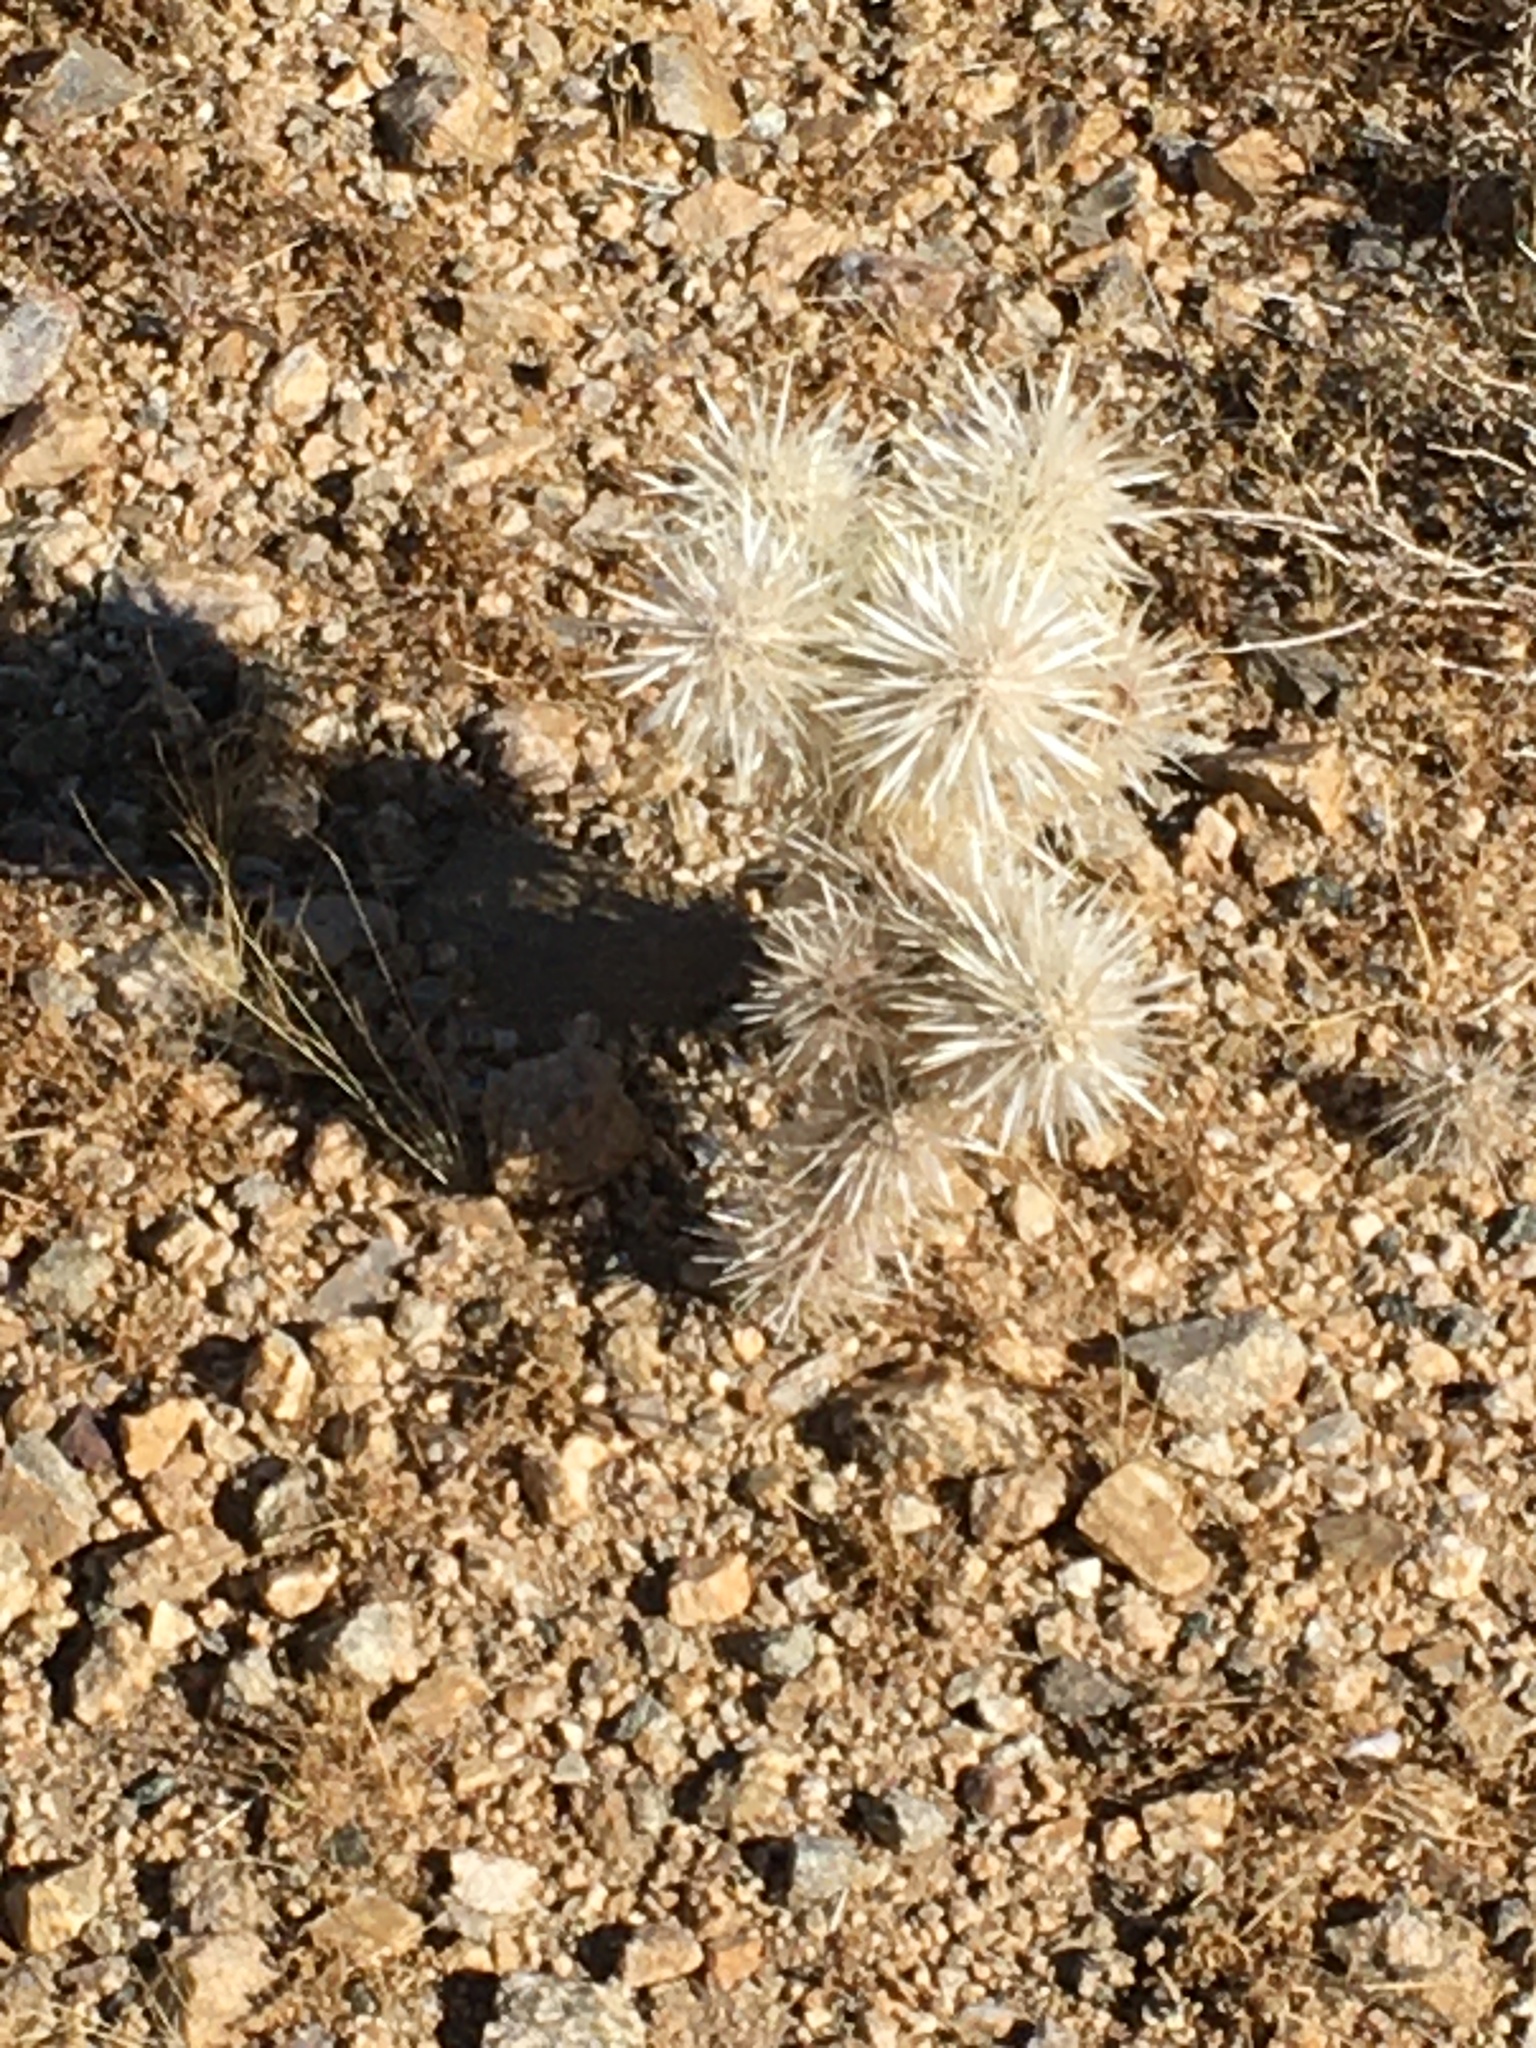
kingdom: Plantae
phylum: Tracheophyta
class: Magnoliopsida
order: Caryophyllales
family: Cactaceae
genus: Cylindropuntia
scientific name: Cylindropuntia echinocarpa
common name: Ground cholla
